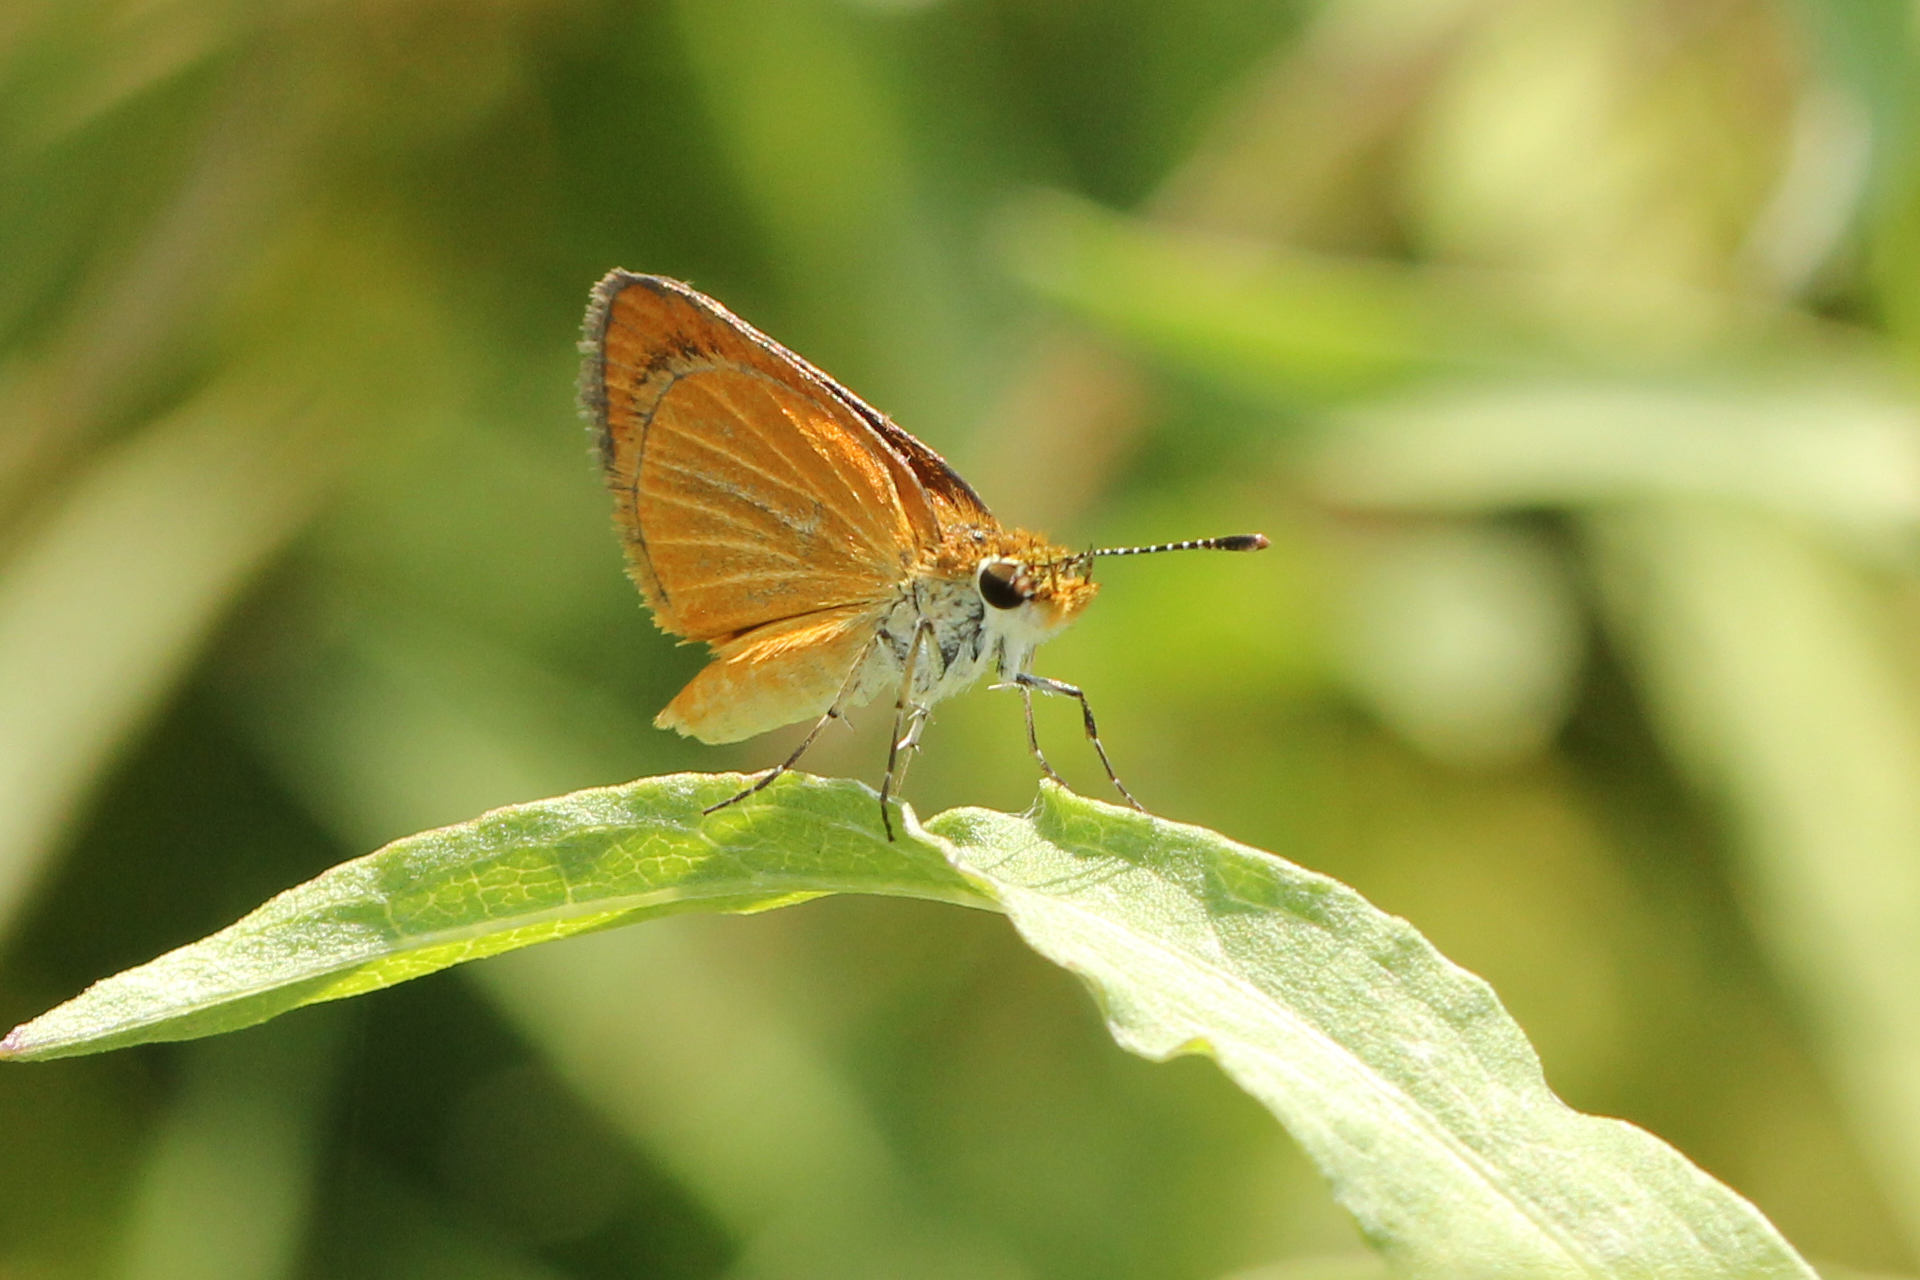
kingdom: Animalia
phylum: Arthropoda
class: Insecta
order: Lepidoptera
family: Hesperiidae
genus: Ancyloxypha
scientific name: Ancyloxypha numitor
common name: Least skipper
